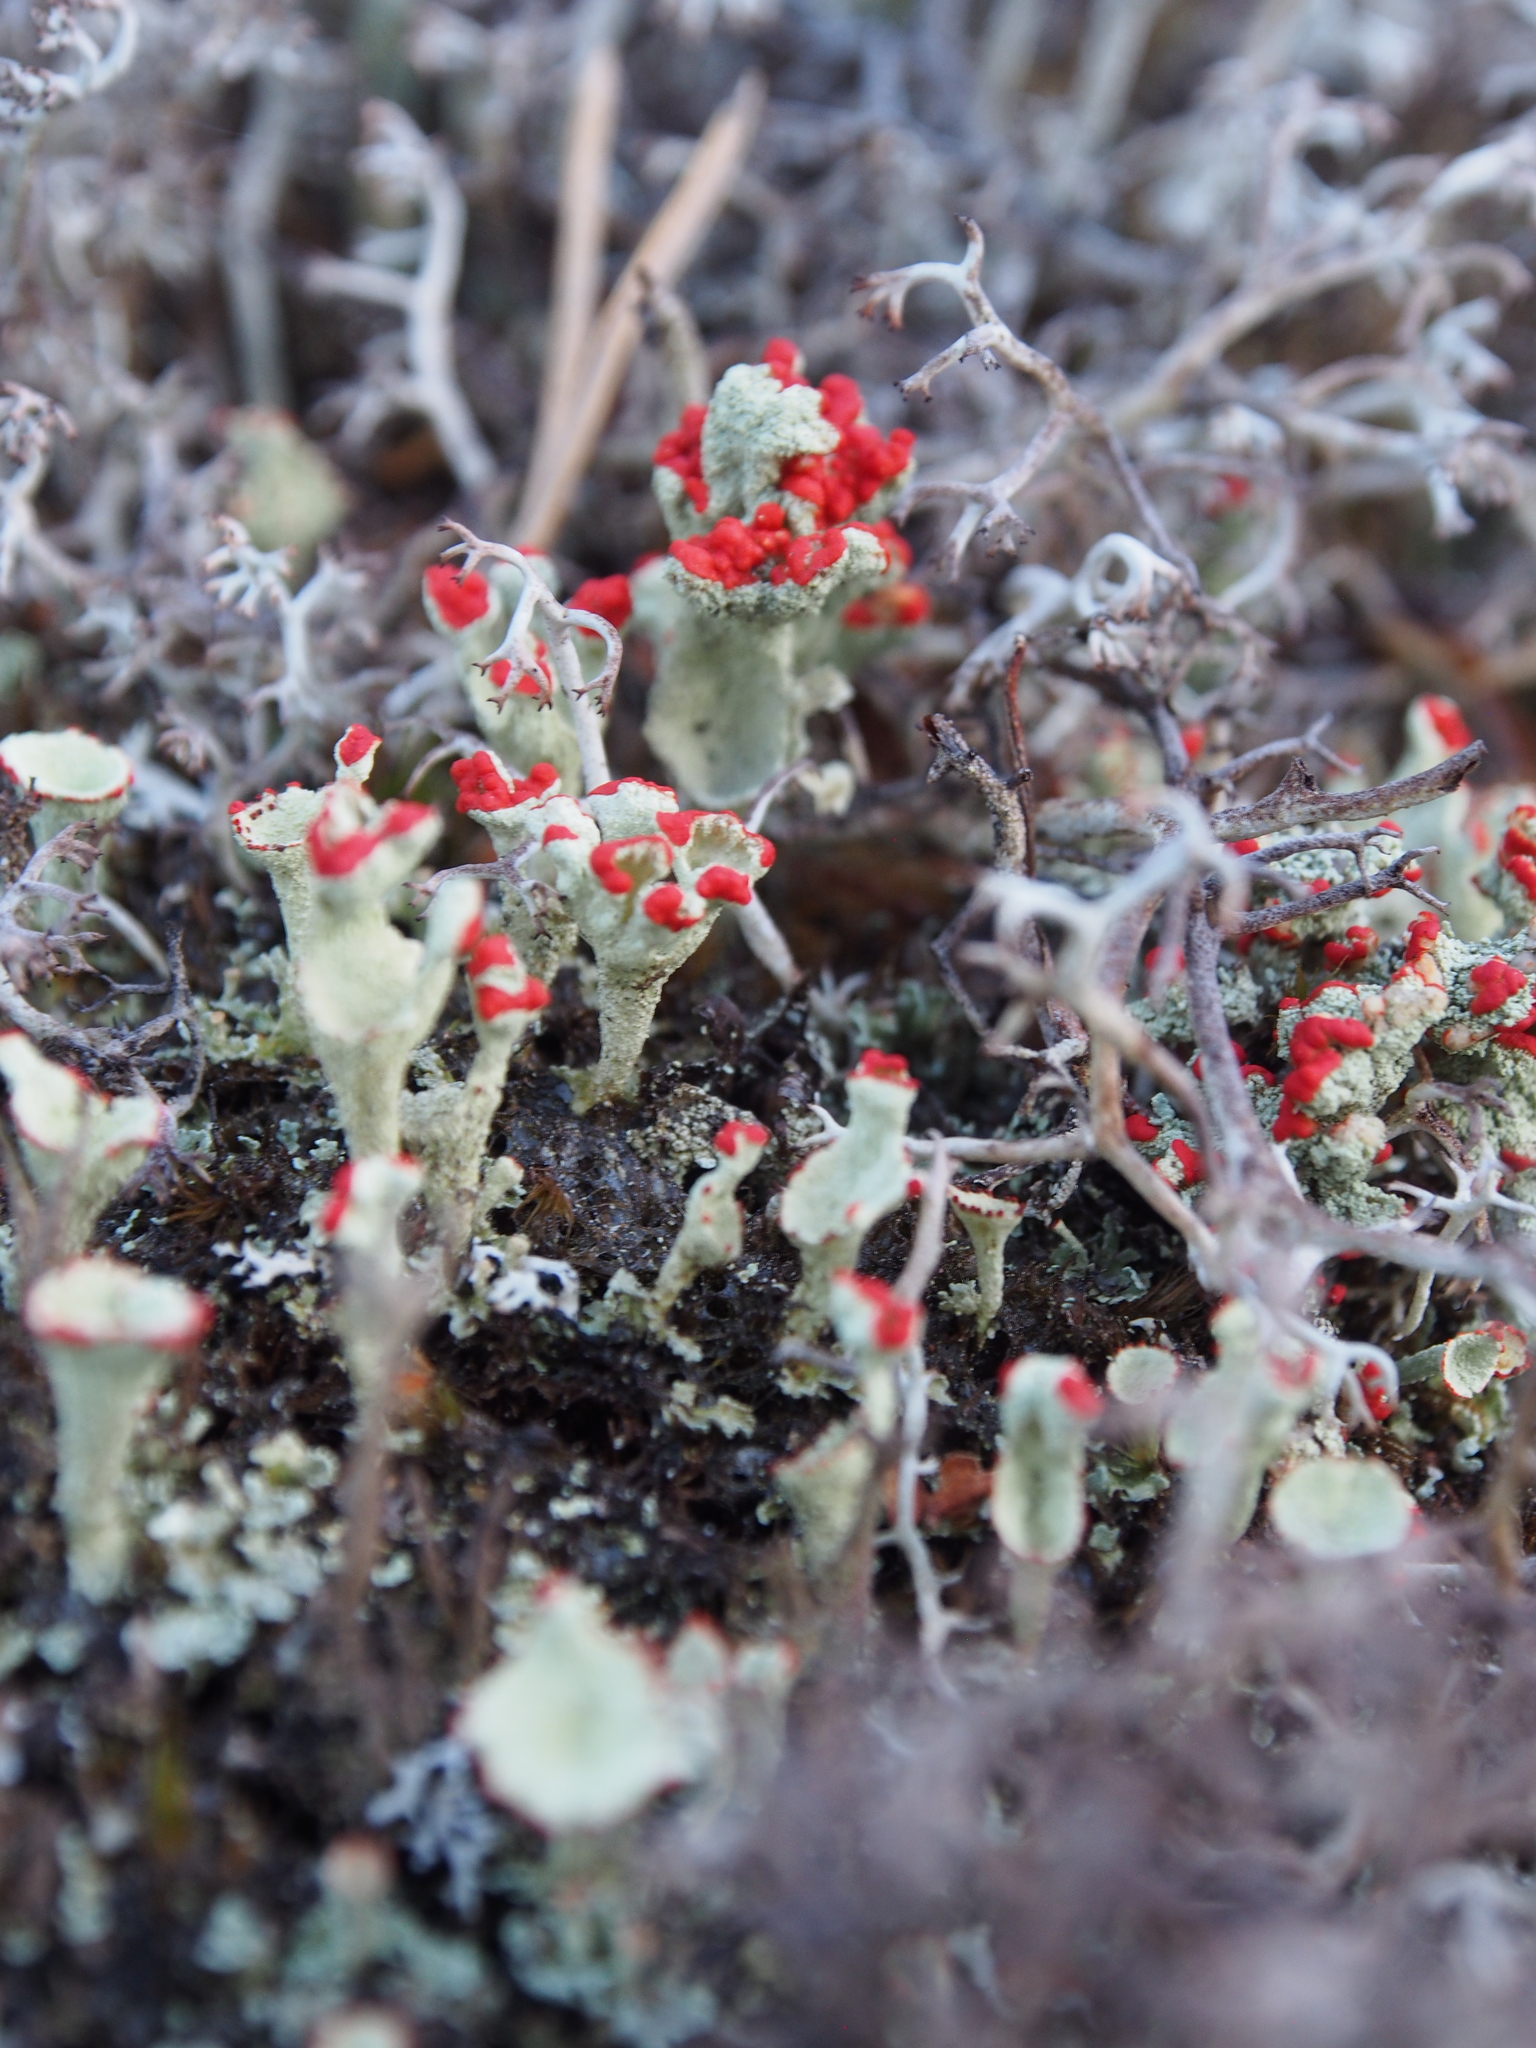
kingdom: Fungi
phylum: Ascomycota
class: Lecanoromycetes
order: Lecanorales
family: Cladoniaceae
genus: Cladonia
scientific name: Cladonia coccifera
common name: Scarlet-cup lichen
